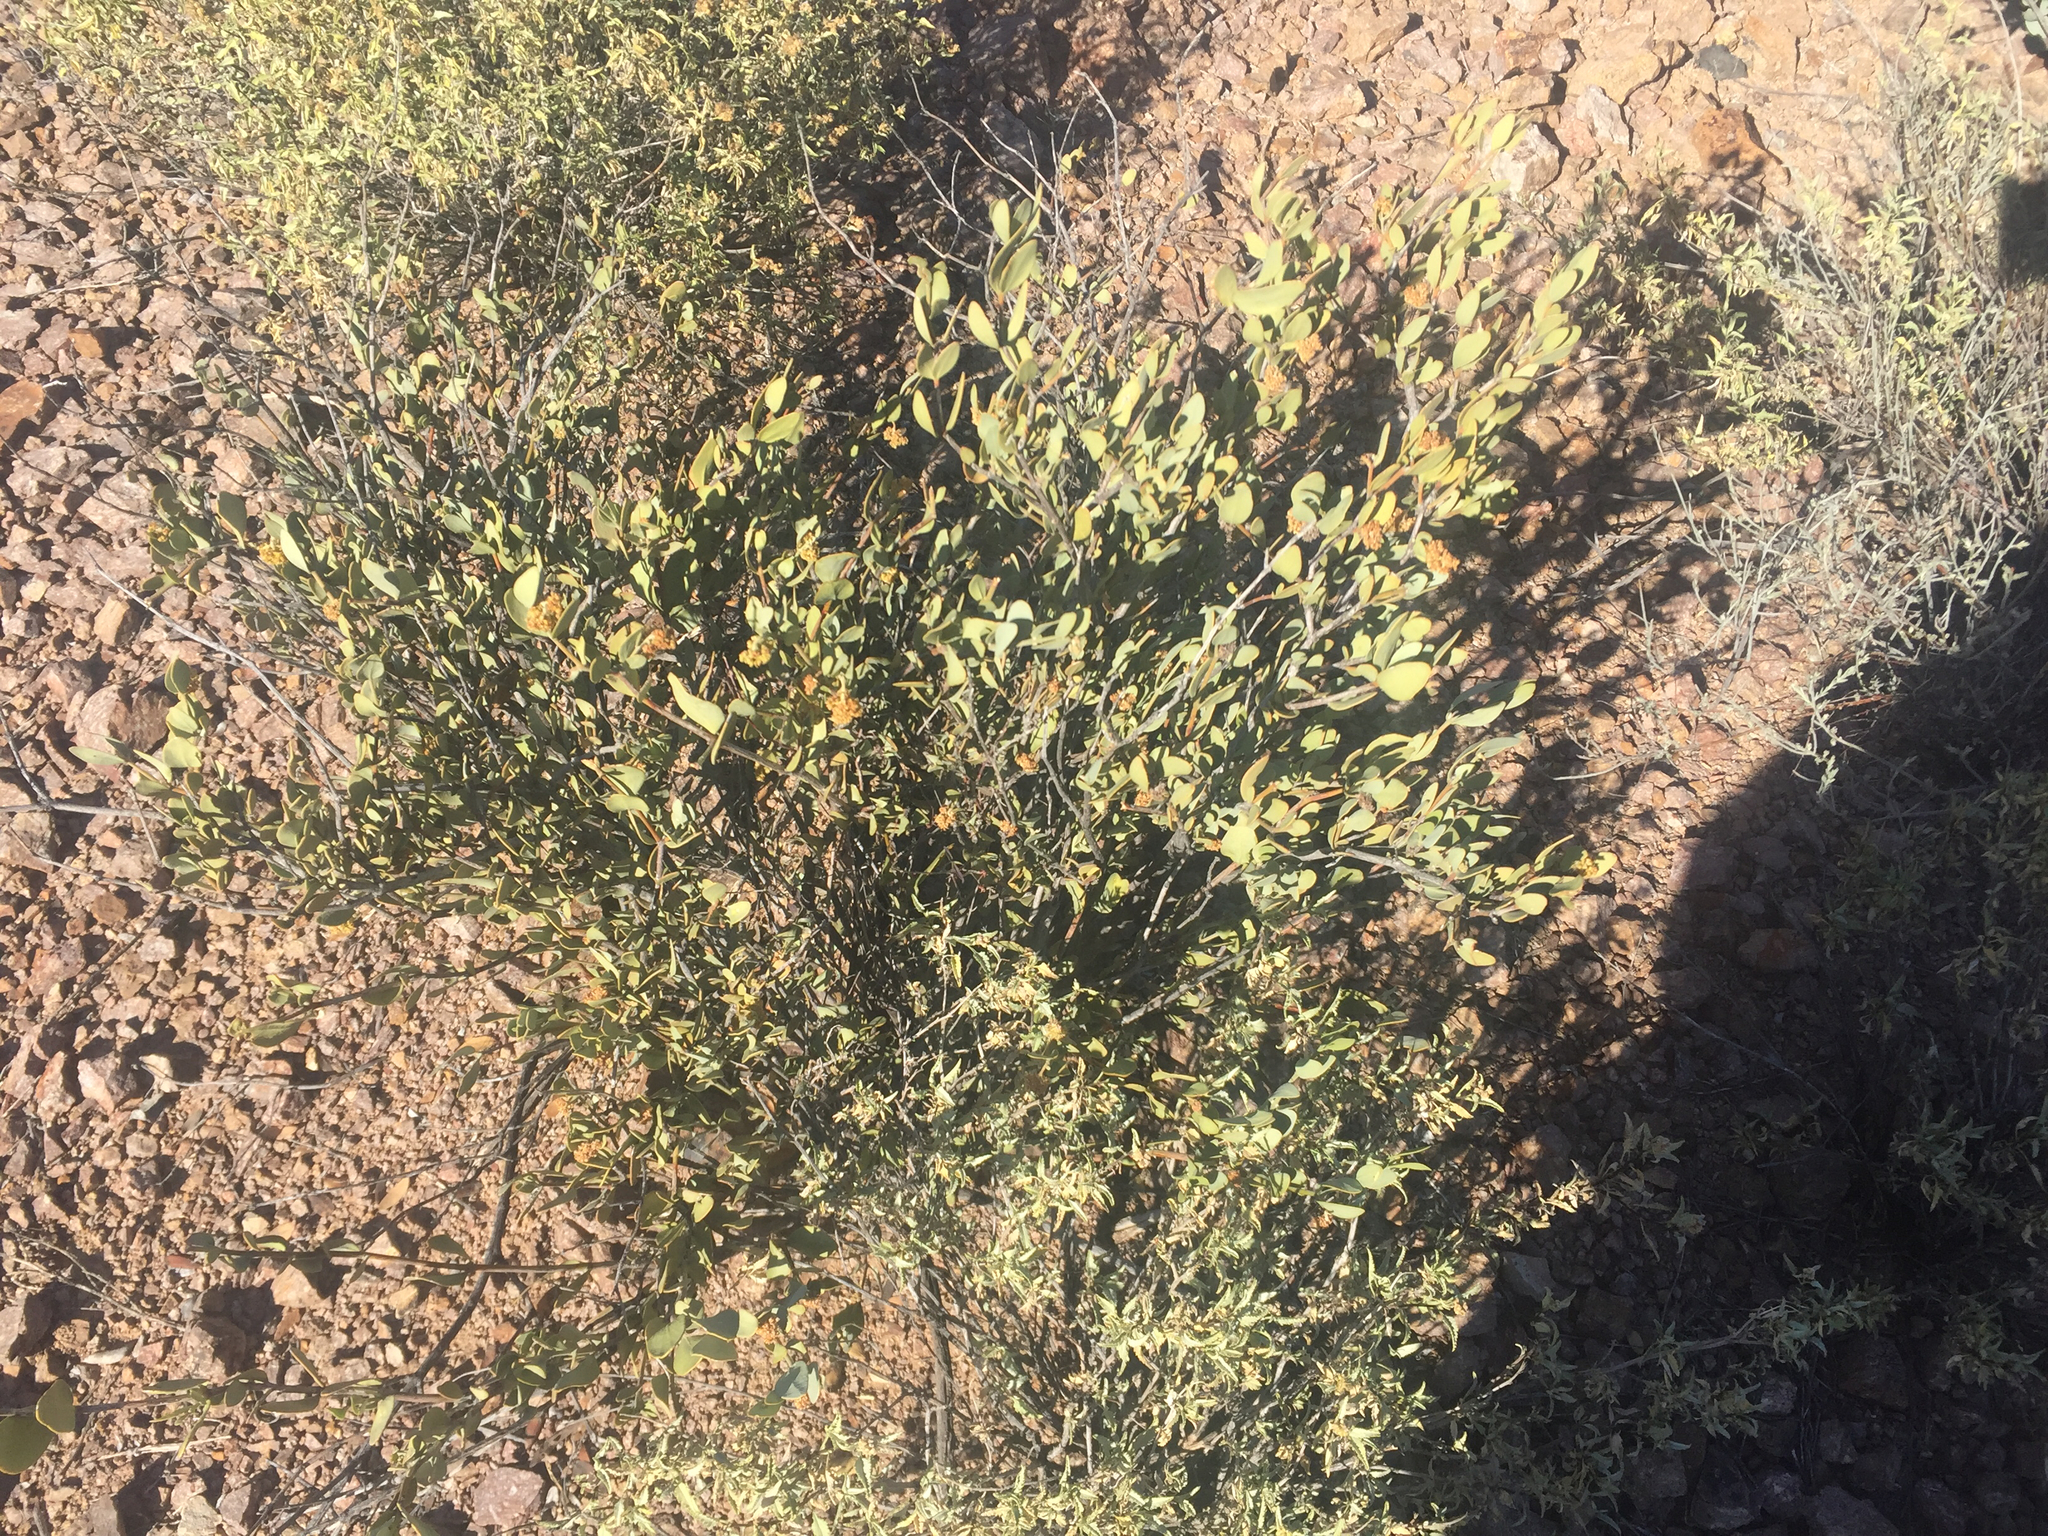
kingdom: Plantae
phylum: Tracheophyta
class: Magnoliopsida
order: Caryophyllales
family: Simmondsiaceae
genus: Simmondsia
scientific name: Simmondsia chinensis
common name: Jojoba
